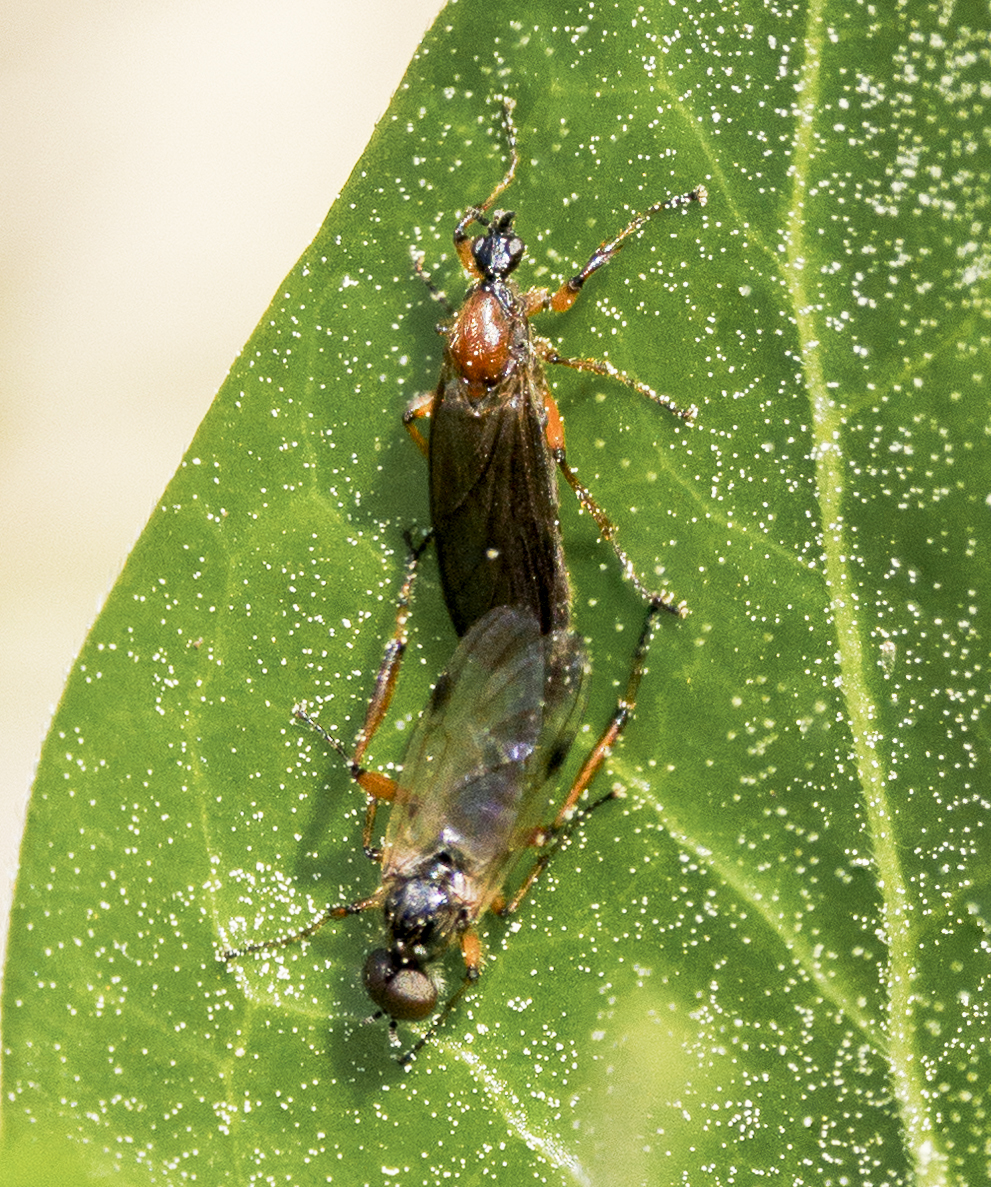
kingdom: Animalia
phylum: Arthropoda
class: Insecta
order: Diptera
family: Bibionidae
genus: Bibio
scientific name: Bibio articulatus
